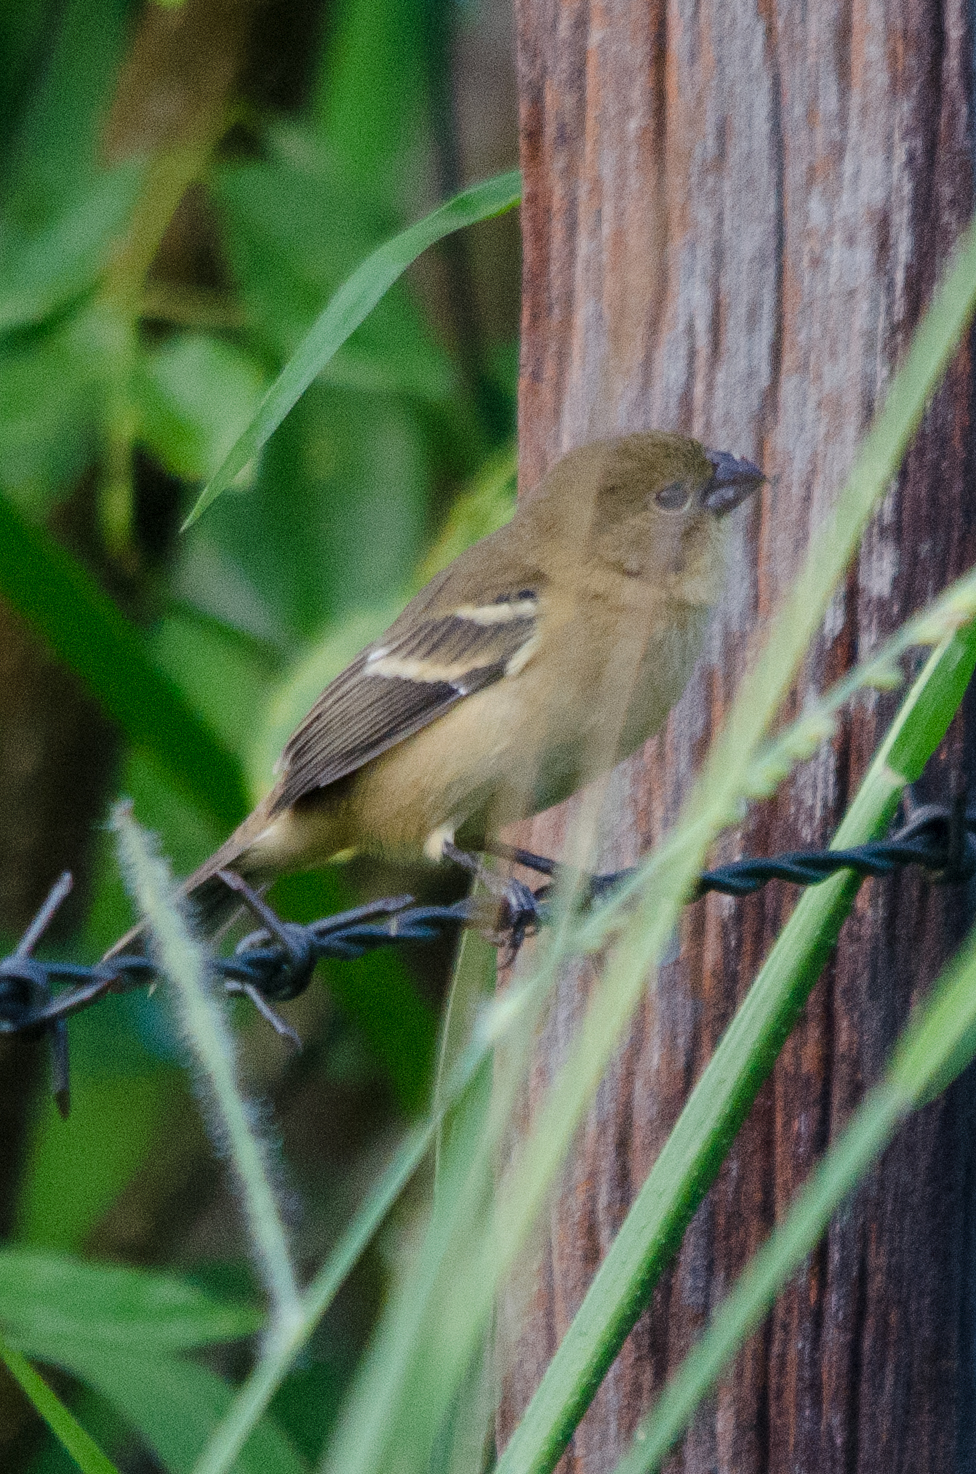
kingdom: Animalia
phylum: Chordata
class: Aves
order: Passeriformes
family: Thraupidae
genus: Sporophila
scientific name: Sporophila morelleti
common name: Morelet's seedeater
